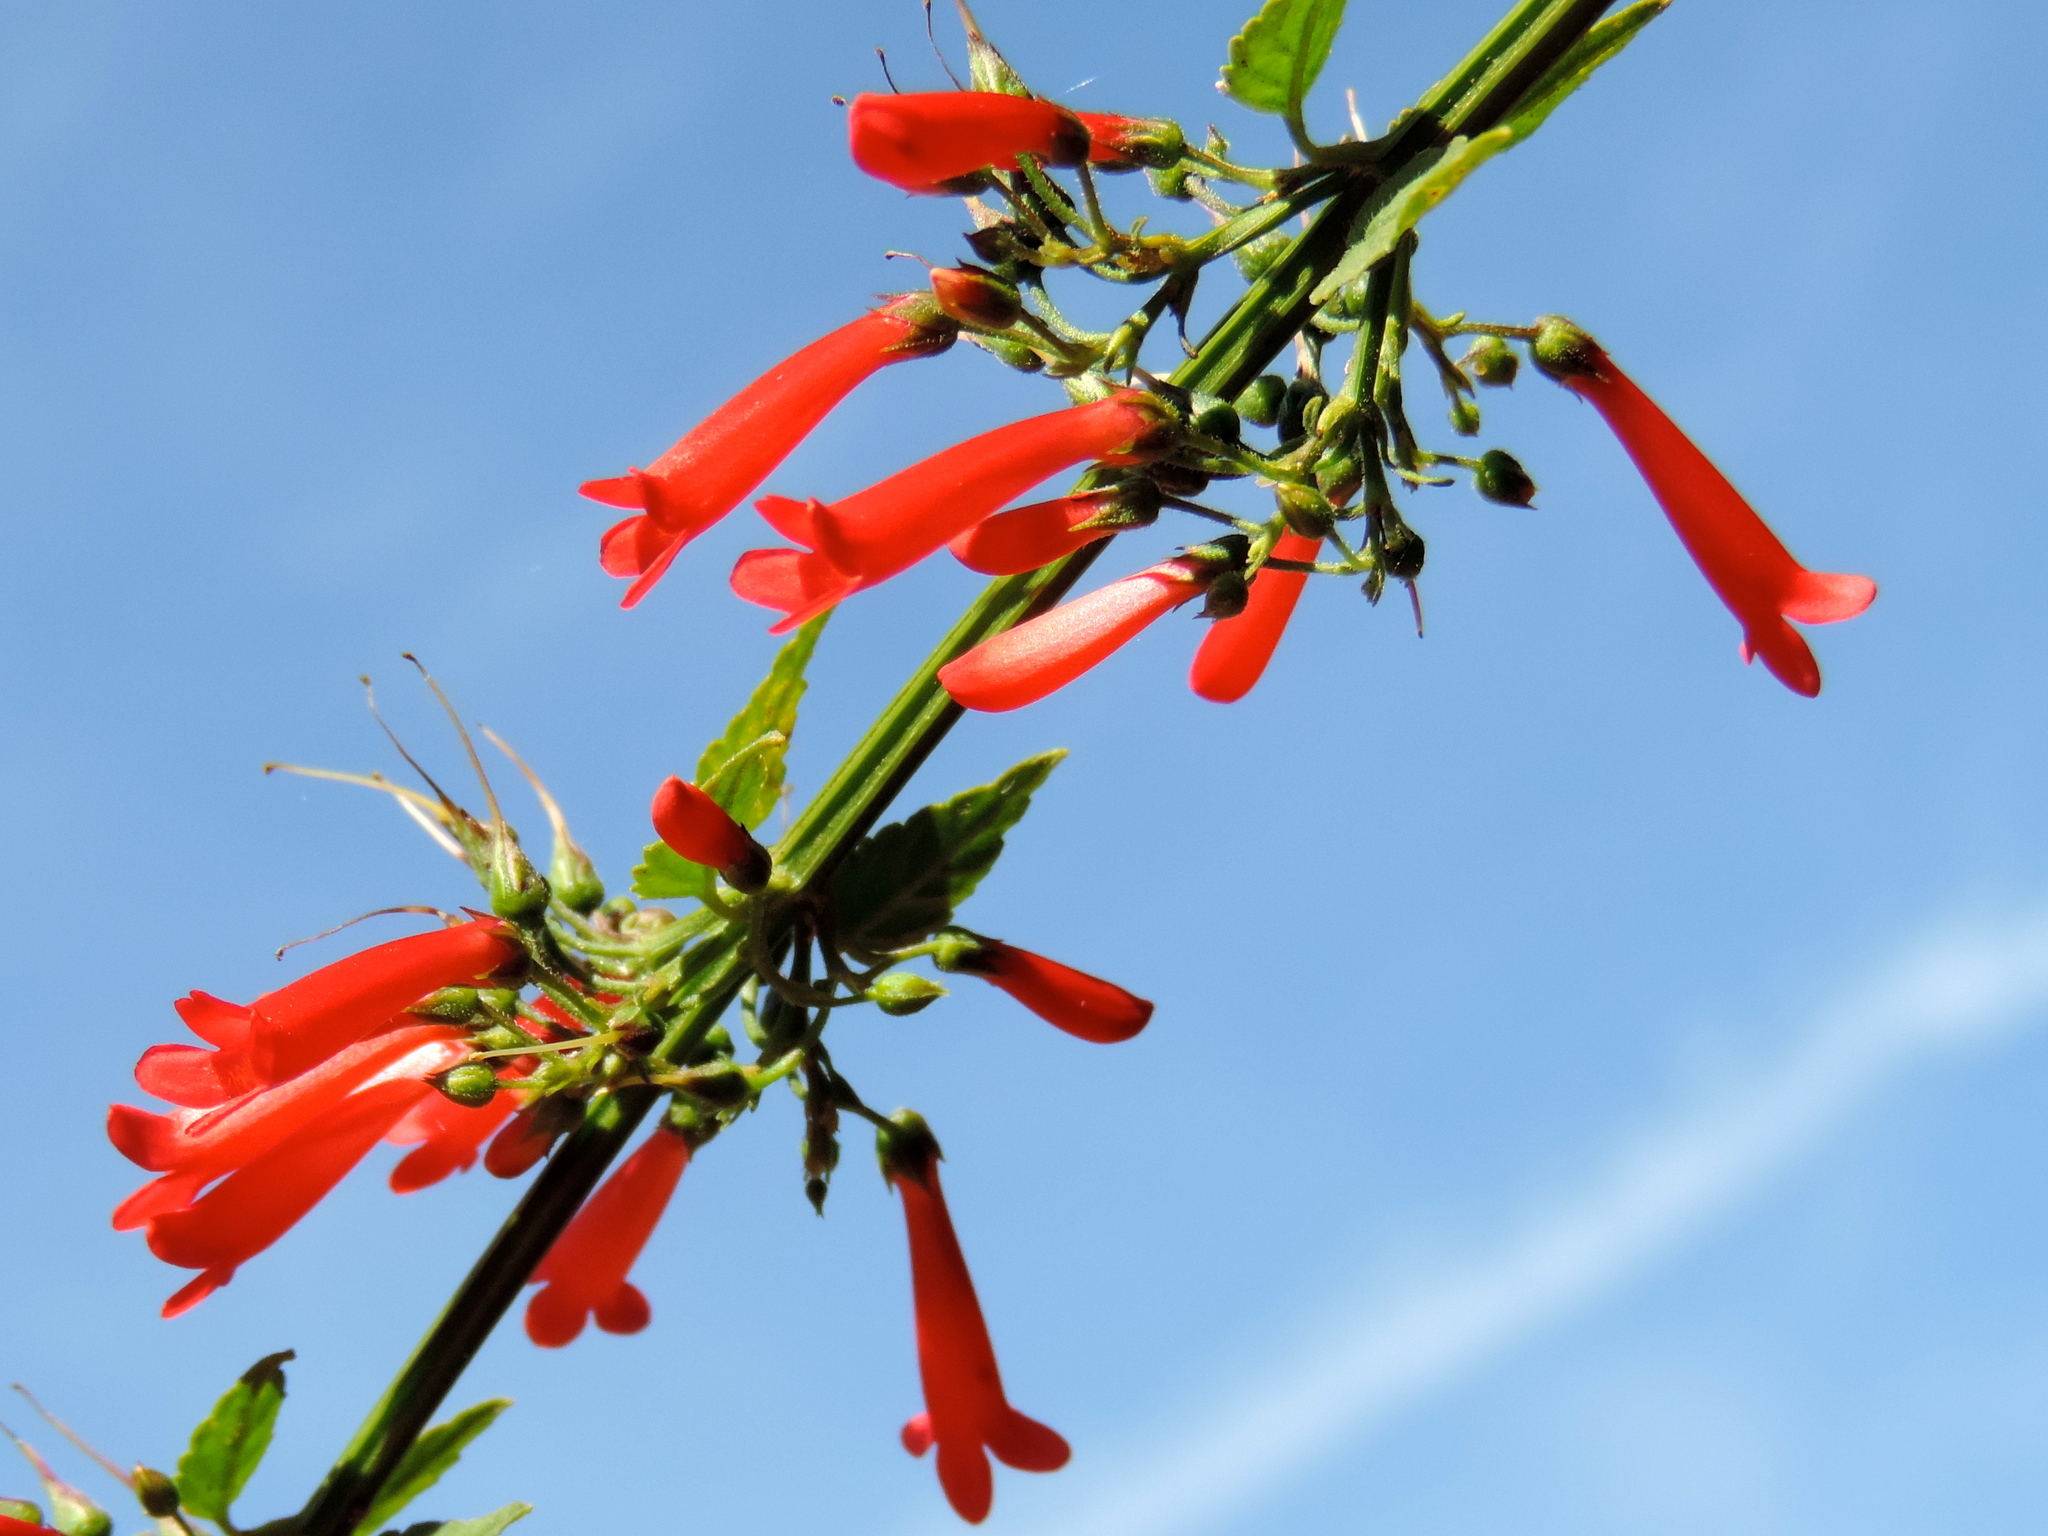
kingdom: Plantae
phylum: Tracheophyta
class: Magnoliopsida
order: Lamiales
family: Plantaginaceae
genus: Russelia
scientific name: Russelia sarmentosa
